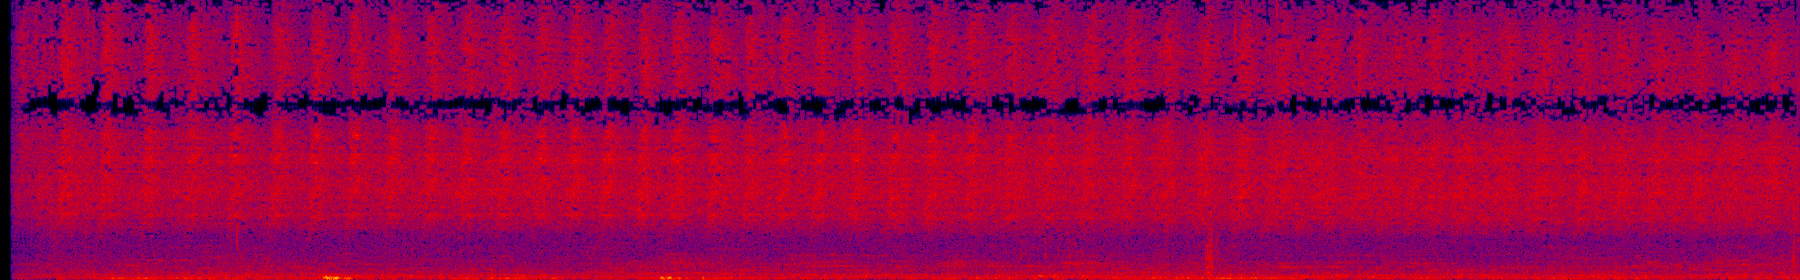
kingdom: Animalia
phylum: Arthropoda
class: Insecta
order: Hemiptera
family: Cicadidae
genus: Cryptotympana
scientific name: Cryptotympana takasagona
